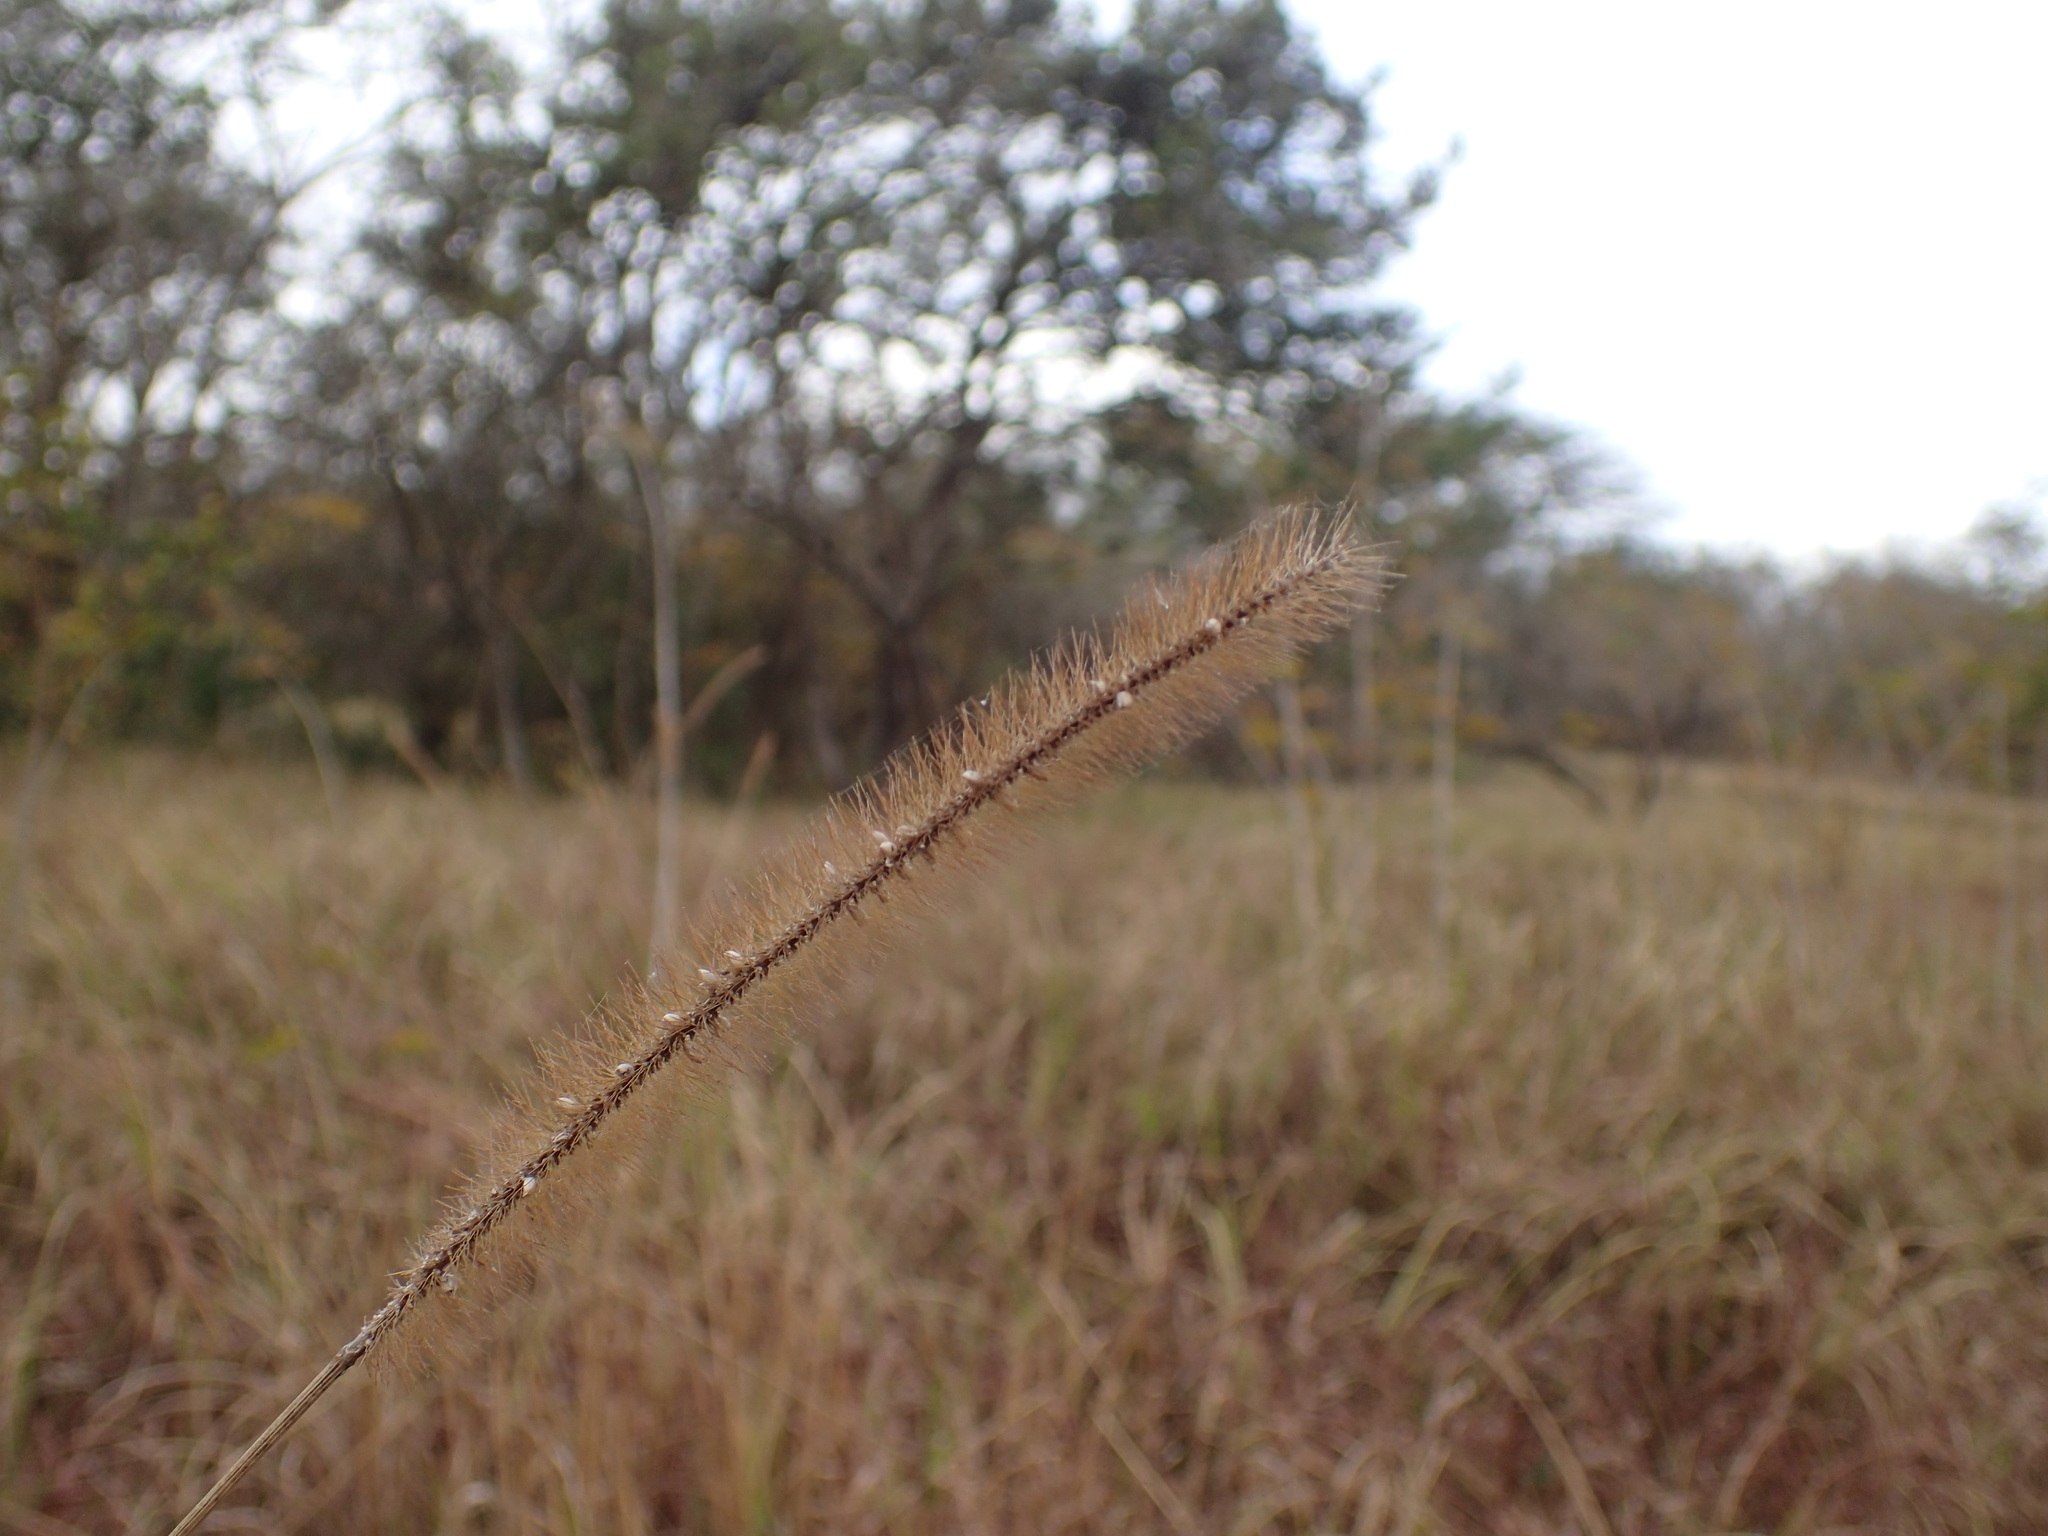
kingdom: Plantae
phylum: Tracheophyta
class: Liliopsida
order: Poales
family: Poaceae
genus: Setaria
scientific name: Setaria sphacelata
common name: African bristlegrass
